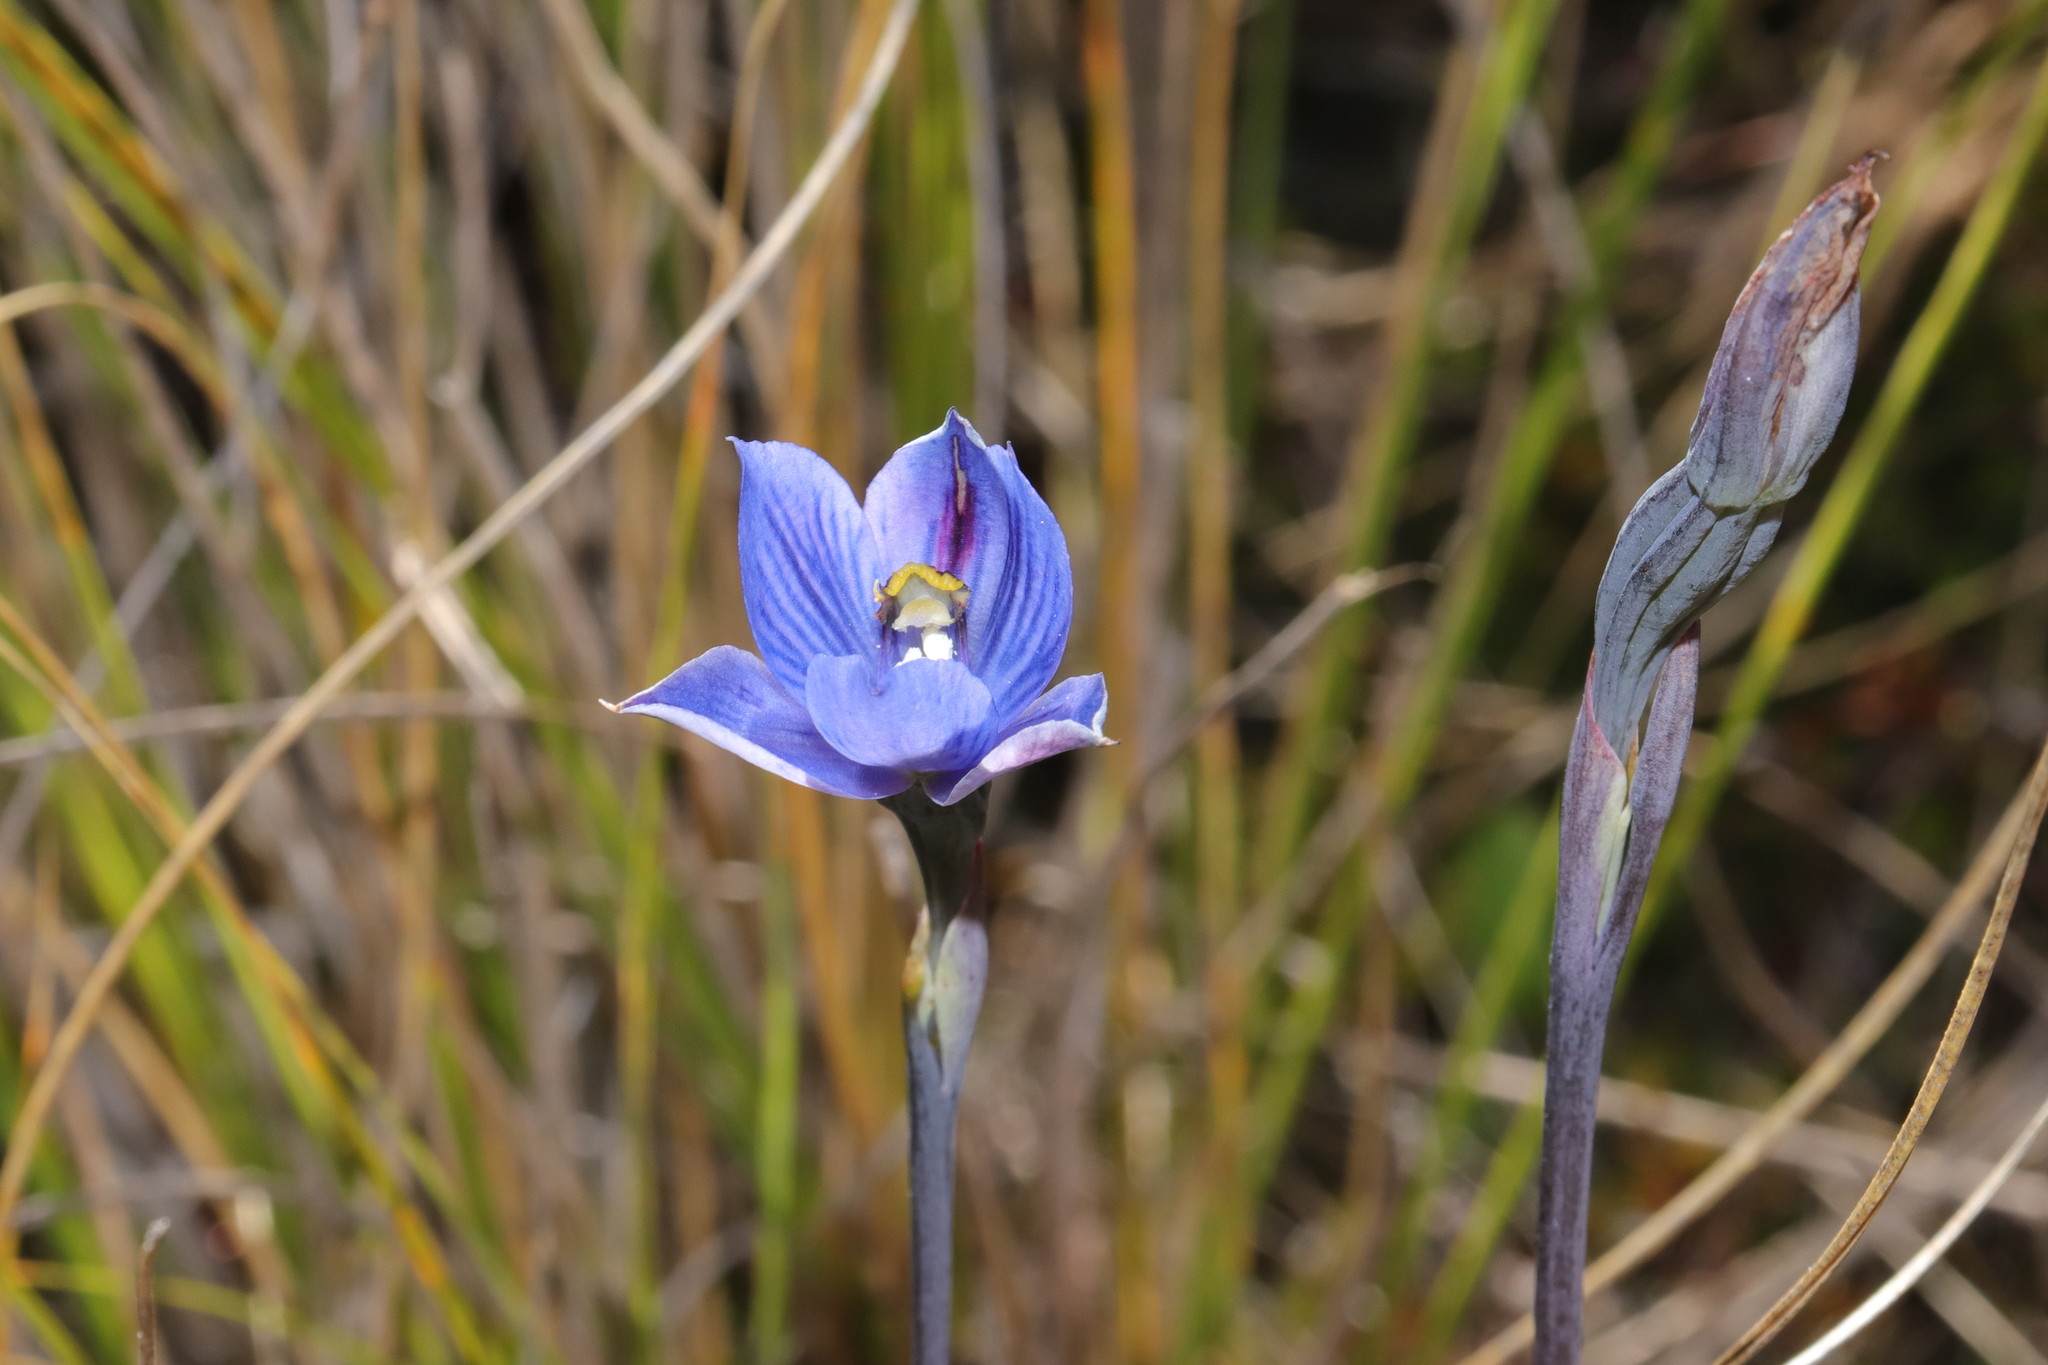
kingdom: Plantae
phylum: Tracheophyta
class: Liliopsida
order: Asparagales
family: Orchidaceae
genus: Thelymitra
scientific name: Thelymitra pulchella
